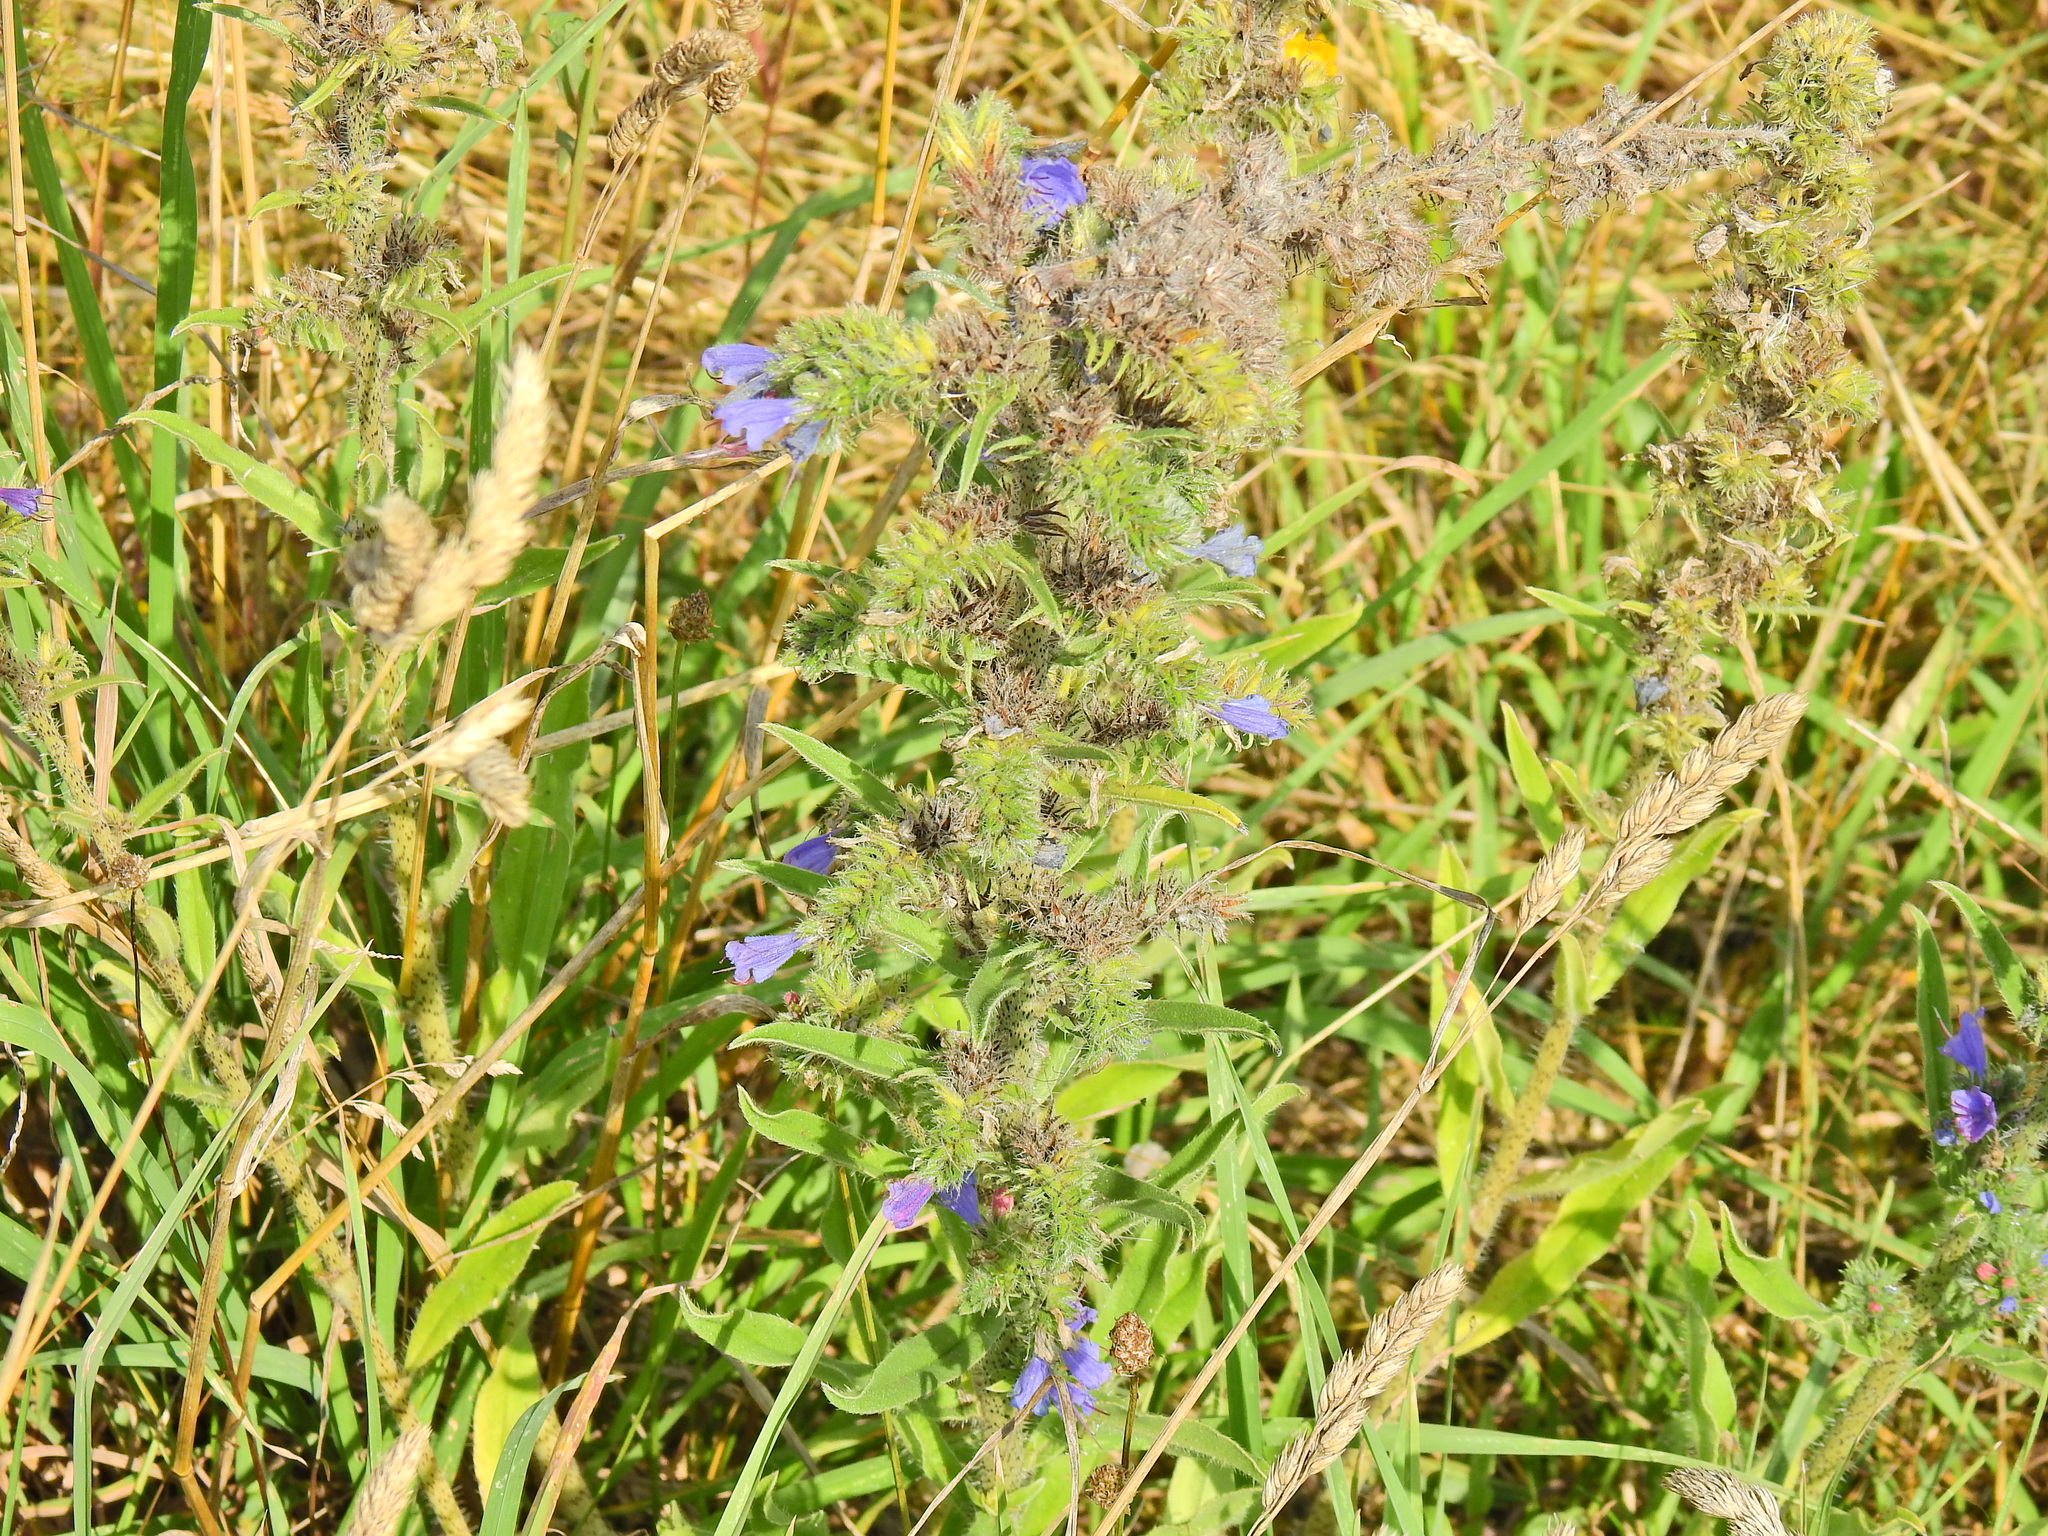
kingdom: Plantae
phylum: Tracheophyta
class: Magnoliopsida
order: Boraginales
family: Boraginaceae
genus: Echium
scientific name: Echium vulgare
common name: Common viper's bugloss
